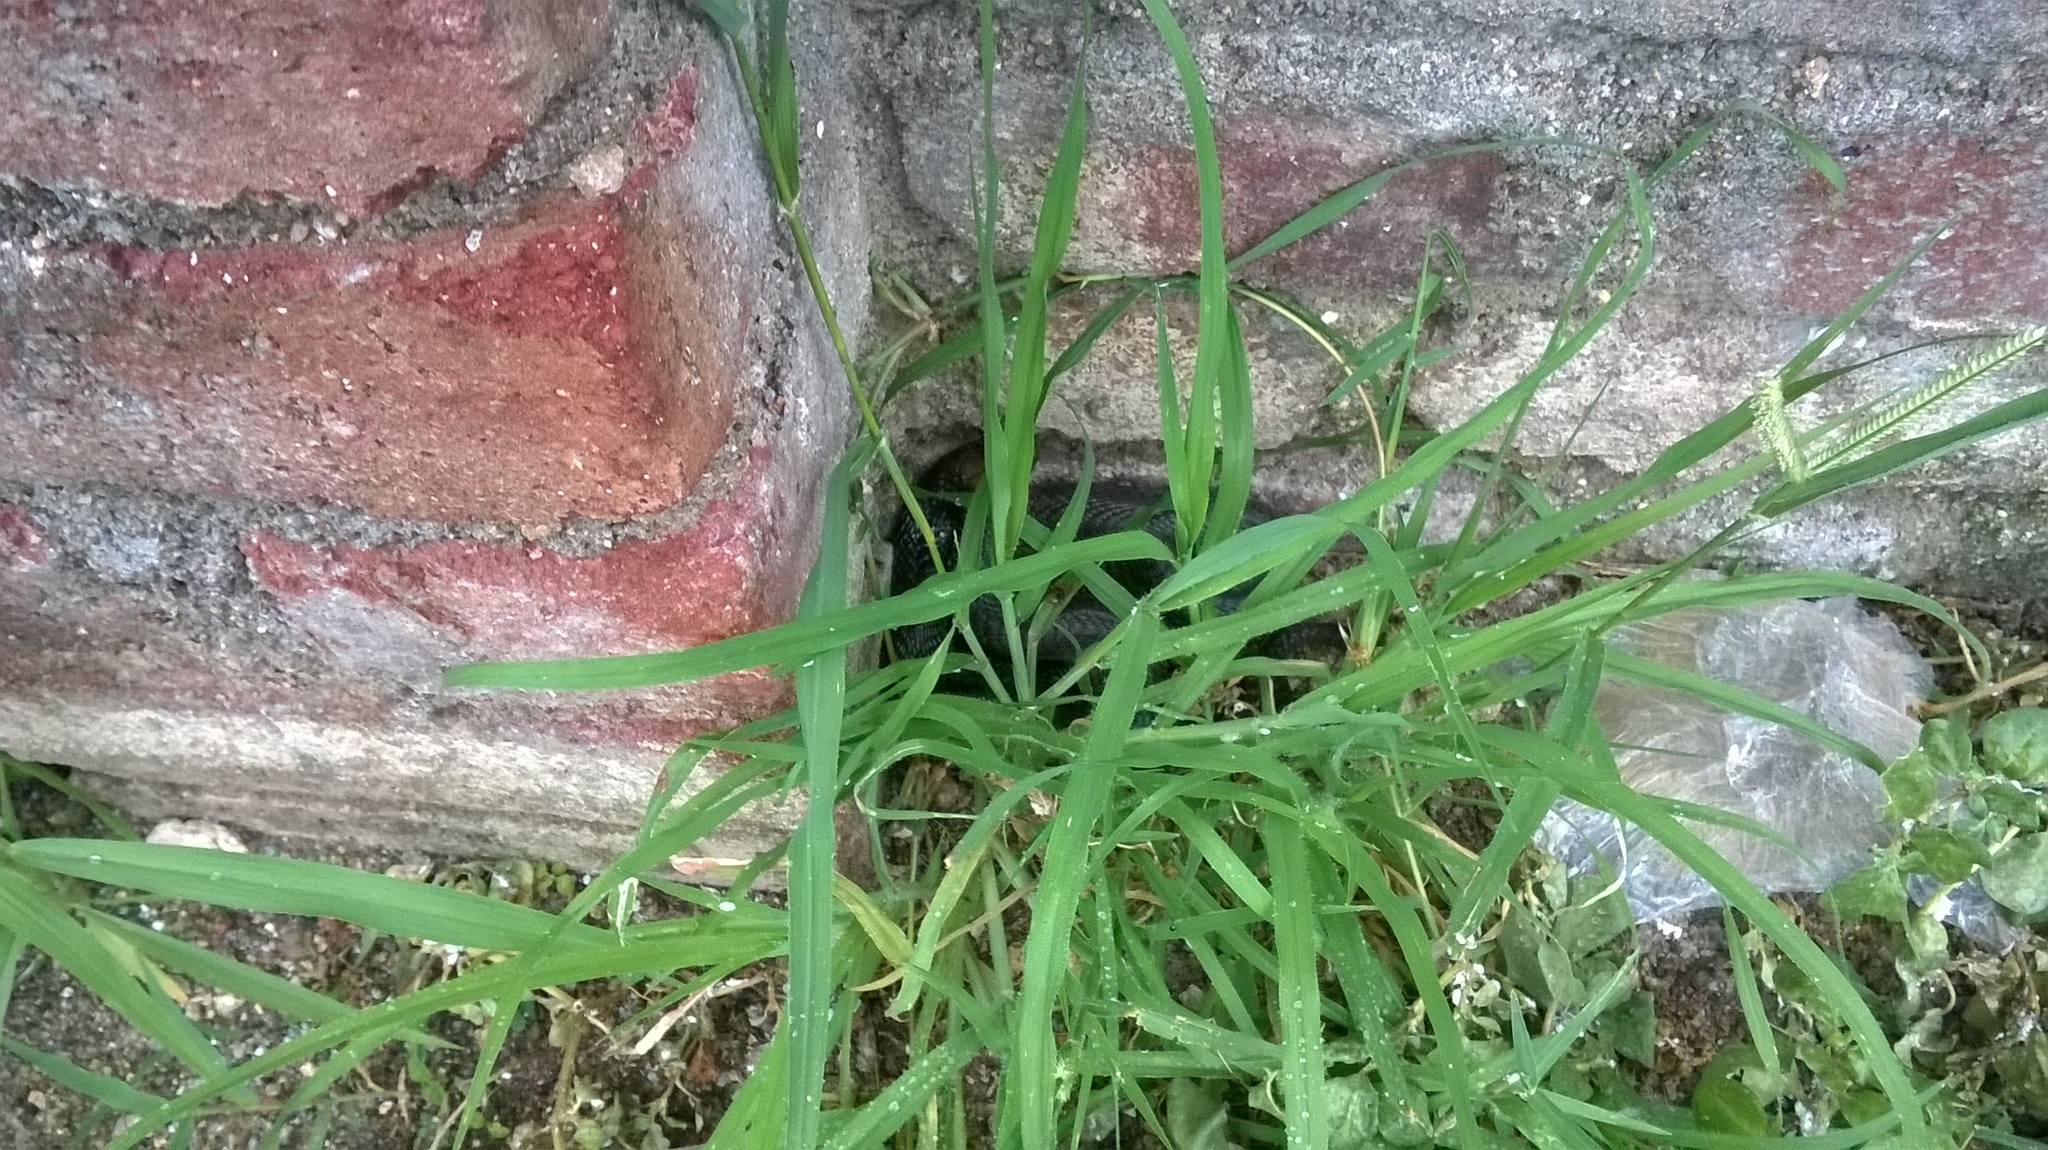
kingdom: Animalia
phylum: Chordata
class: Squamata
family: Elapidae
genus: Naja
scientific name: Naja naja
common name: Indian cobra
